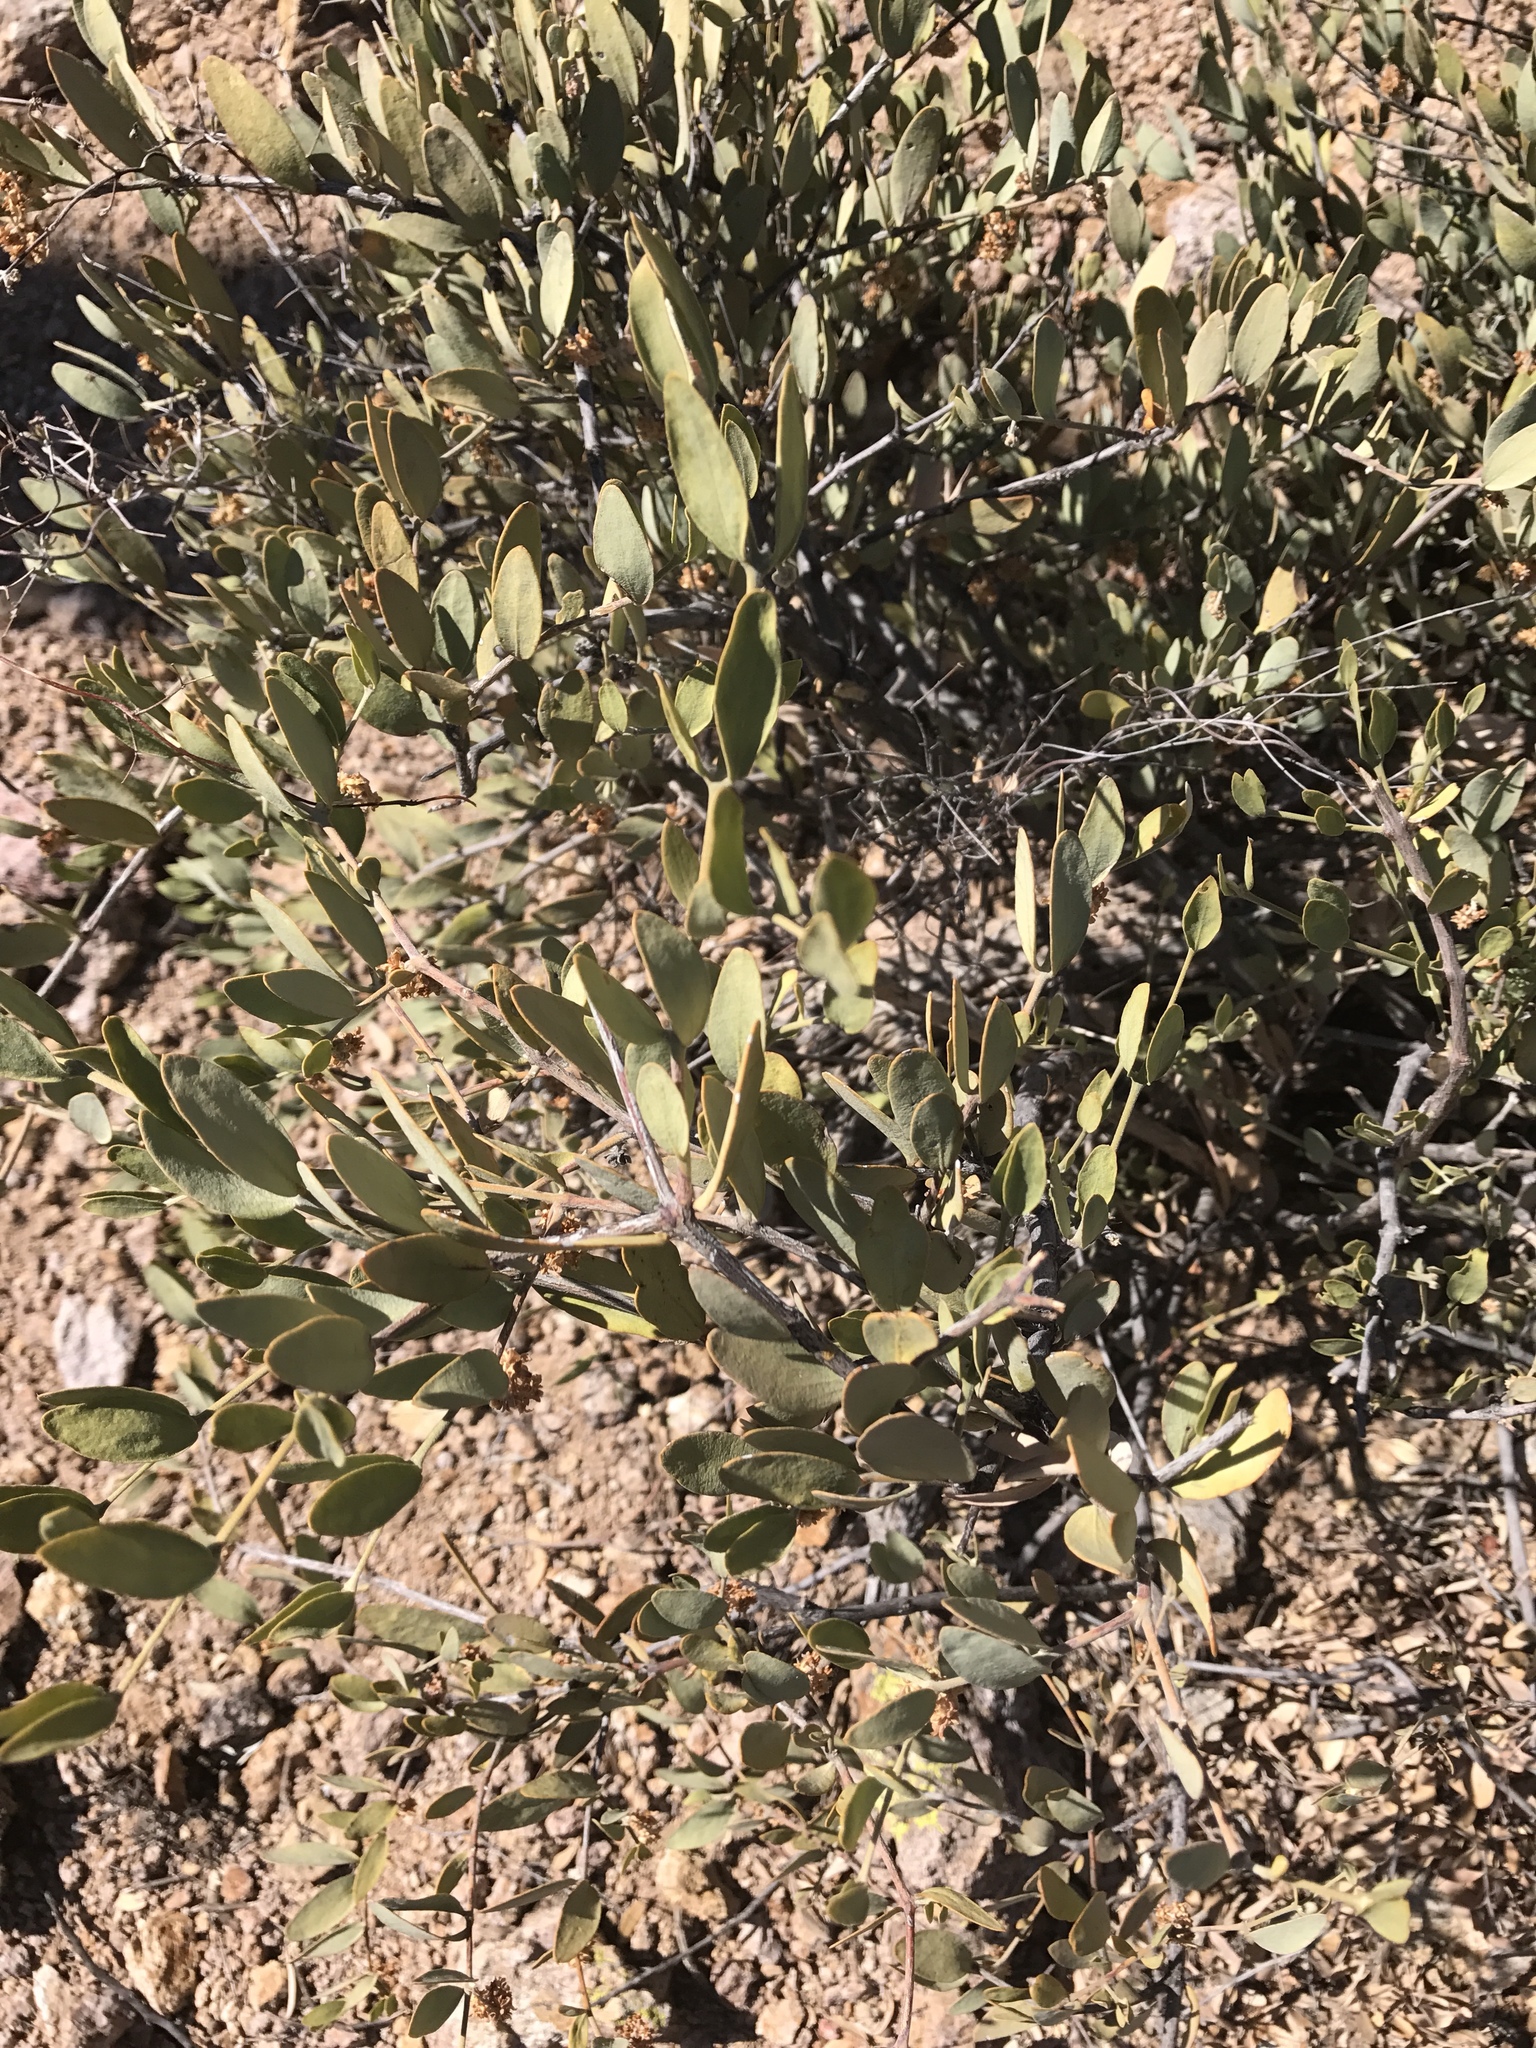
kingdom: Plantae
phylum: Tracheophyta
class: Magnoliopsida
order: Caryophyllales
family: Simmondsiaceae
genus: Simmondsia
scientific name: Simmondsia chinensis
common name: Jojoba
